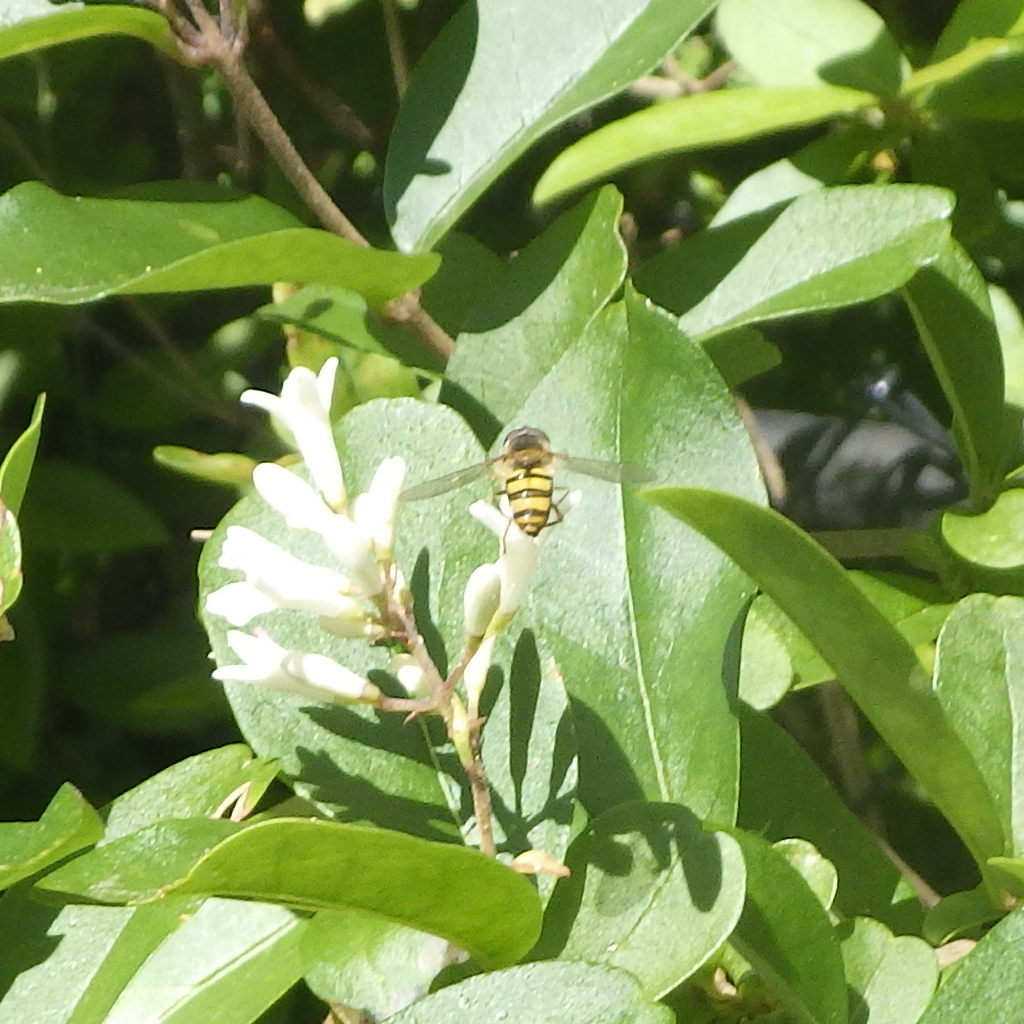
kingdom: Animalia
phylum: Arthropoda
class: Insecta
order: Diptera
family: Syrphidae
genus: Eupeodes
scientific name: Eupeodes
